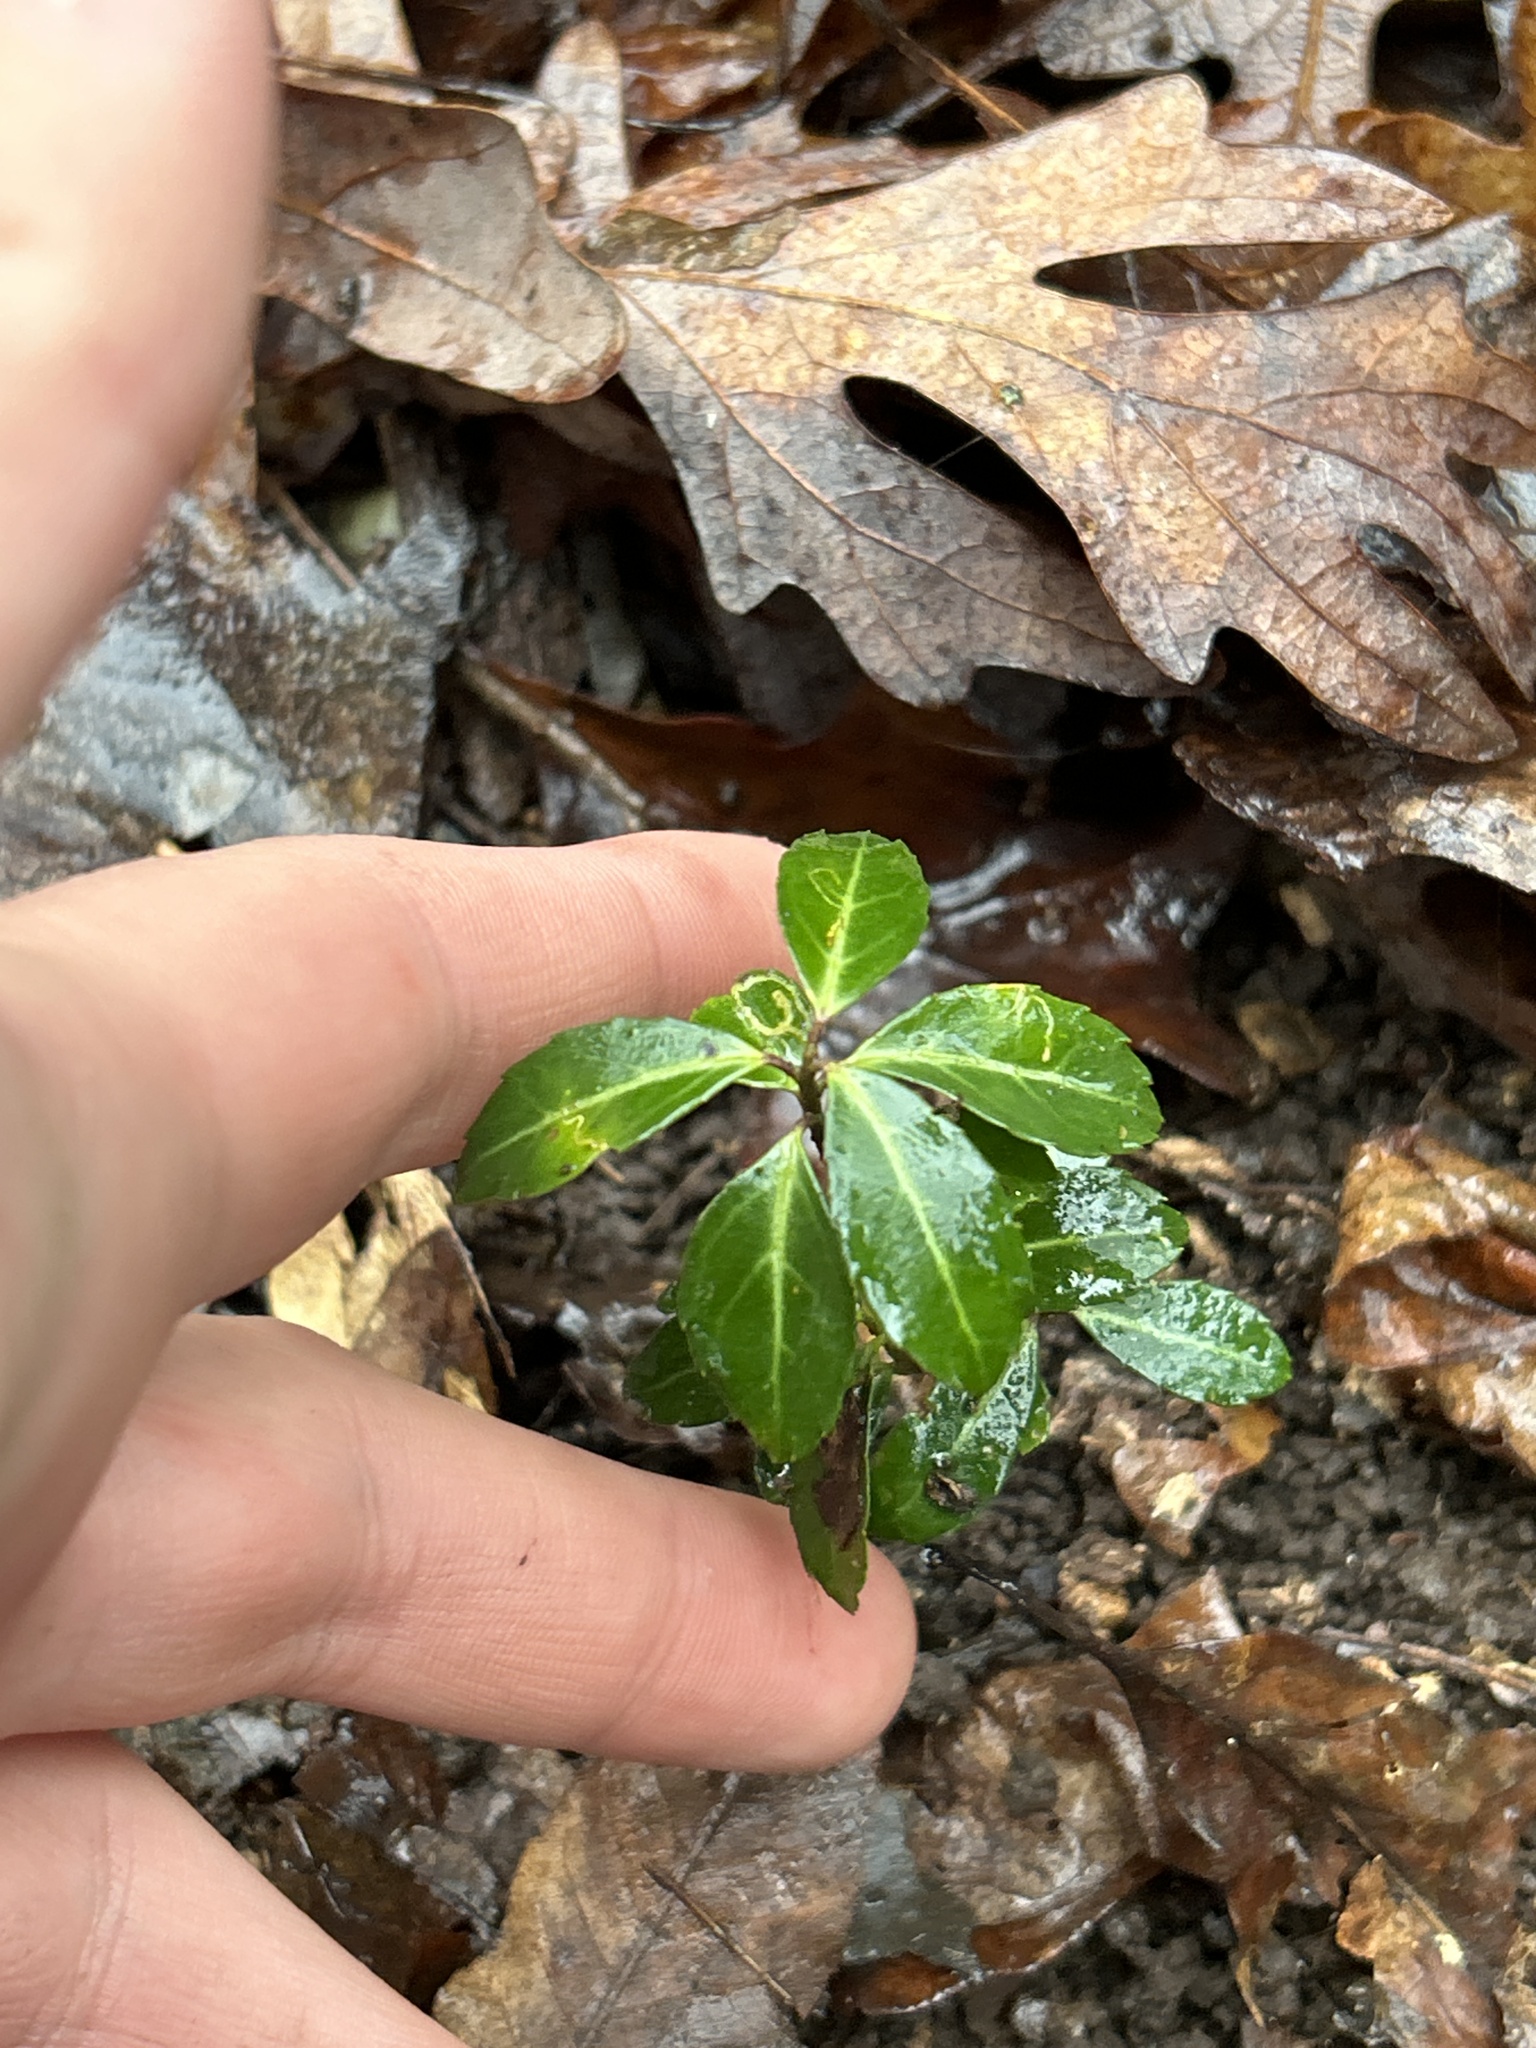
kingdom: Plantae
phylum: Tracheophyta
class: Magnoliopsida
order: Aquifoliales
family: Aquifoliaceae
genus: Ilex
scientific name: Ilex crenata
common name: Japanese holly
